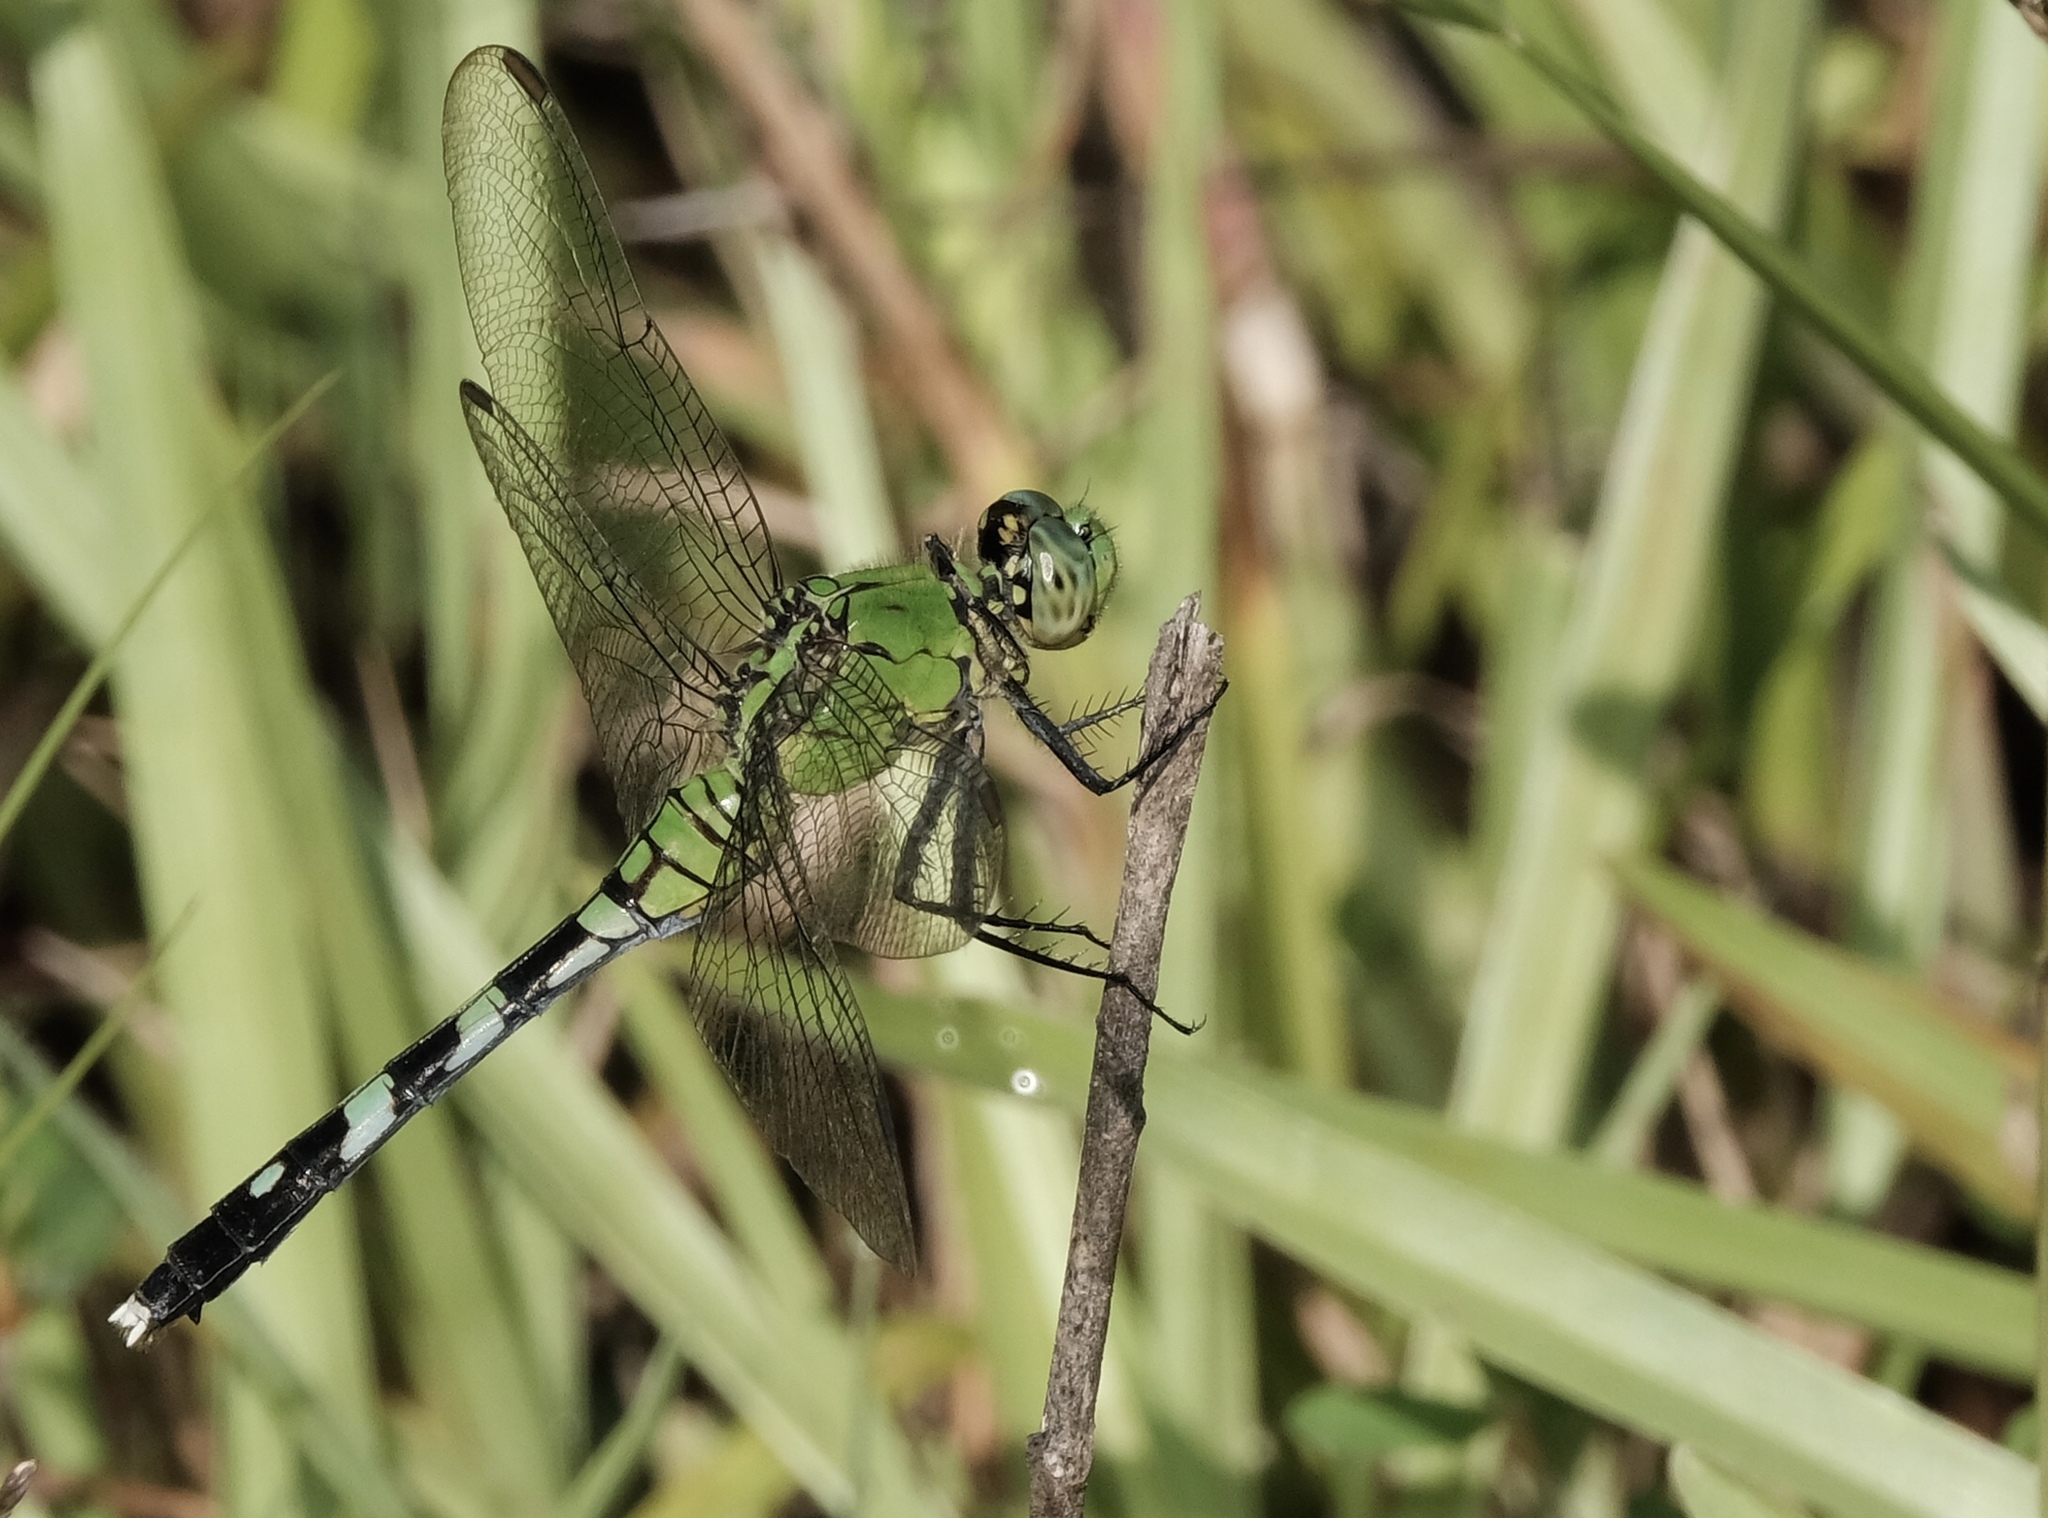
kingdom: Animalia
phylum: Arthropoda
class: Insecta
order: Odonata
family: Libellulidae
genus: Erythemis
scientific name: Erythemis simplicicollis
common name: Eastern pondhawk
